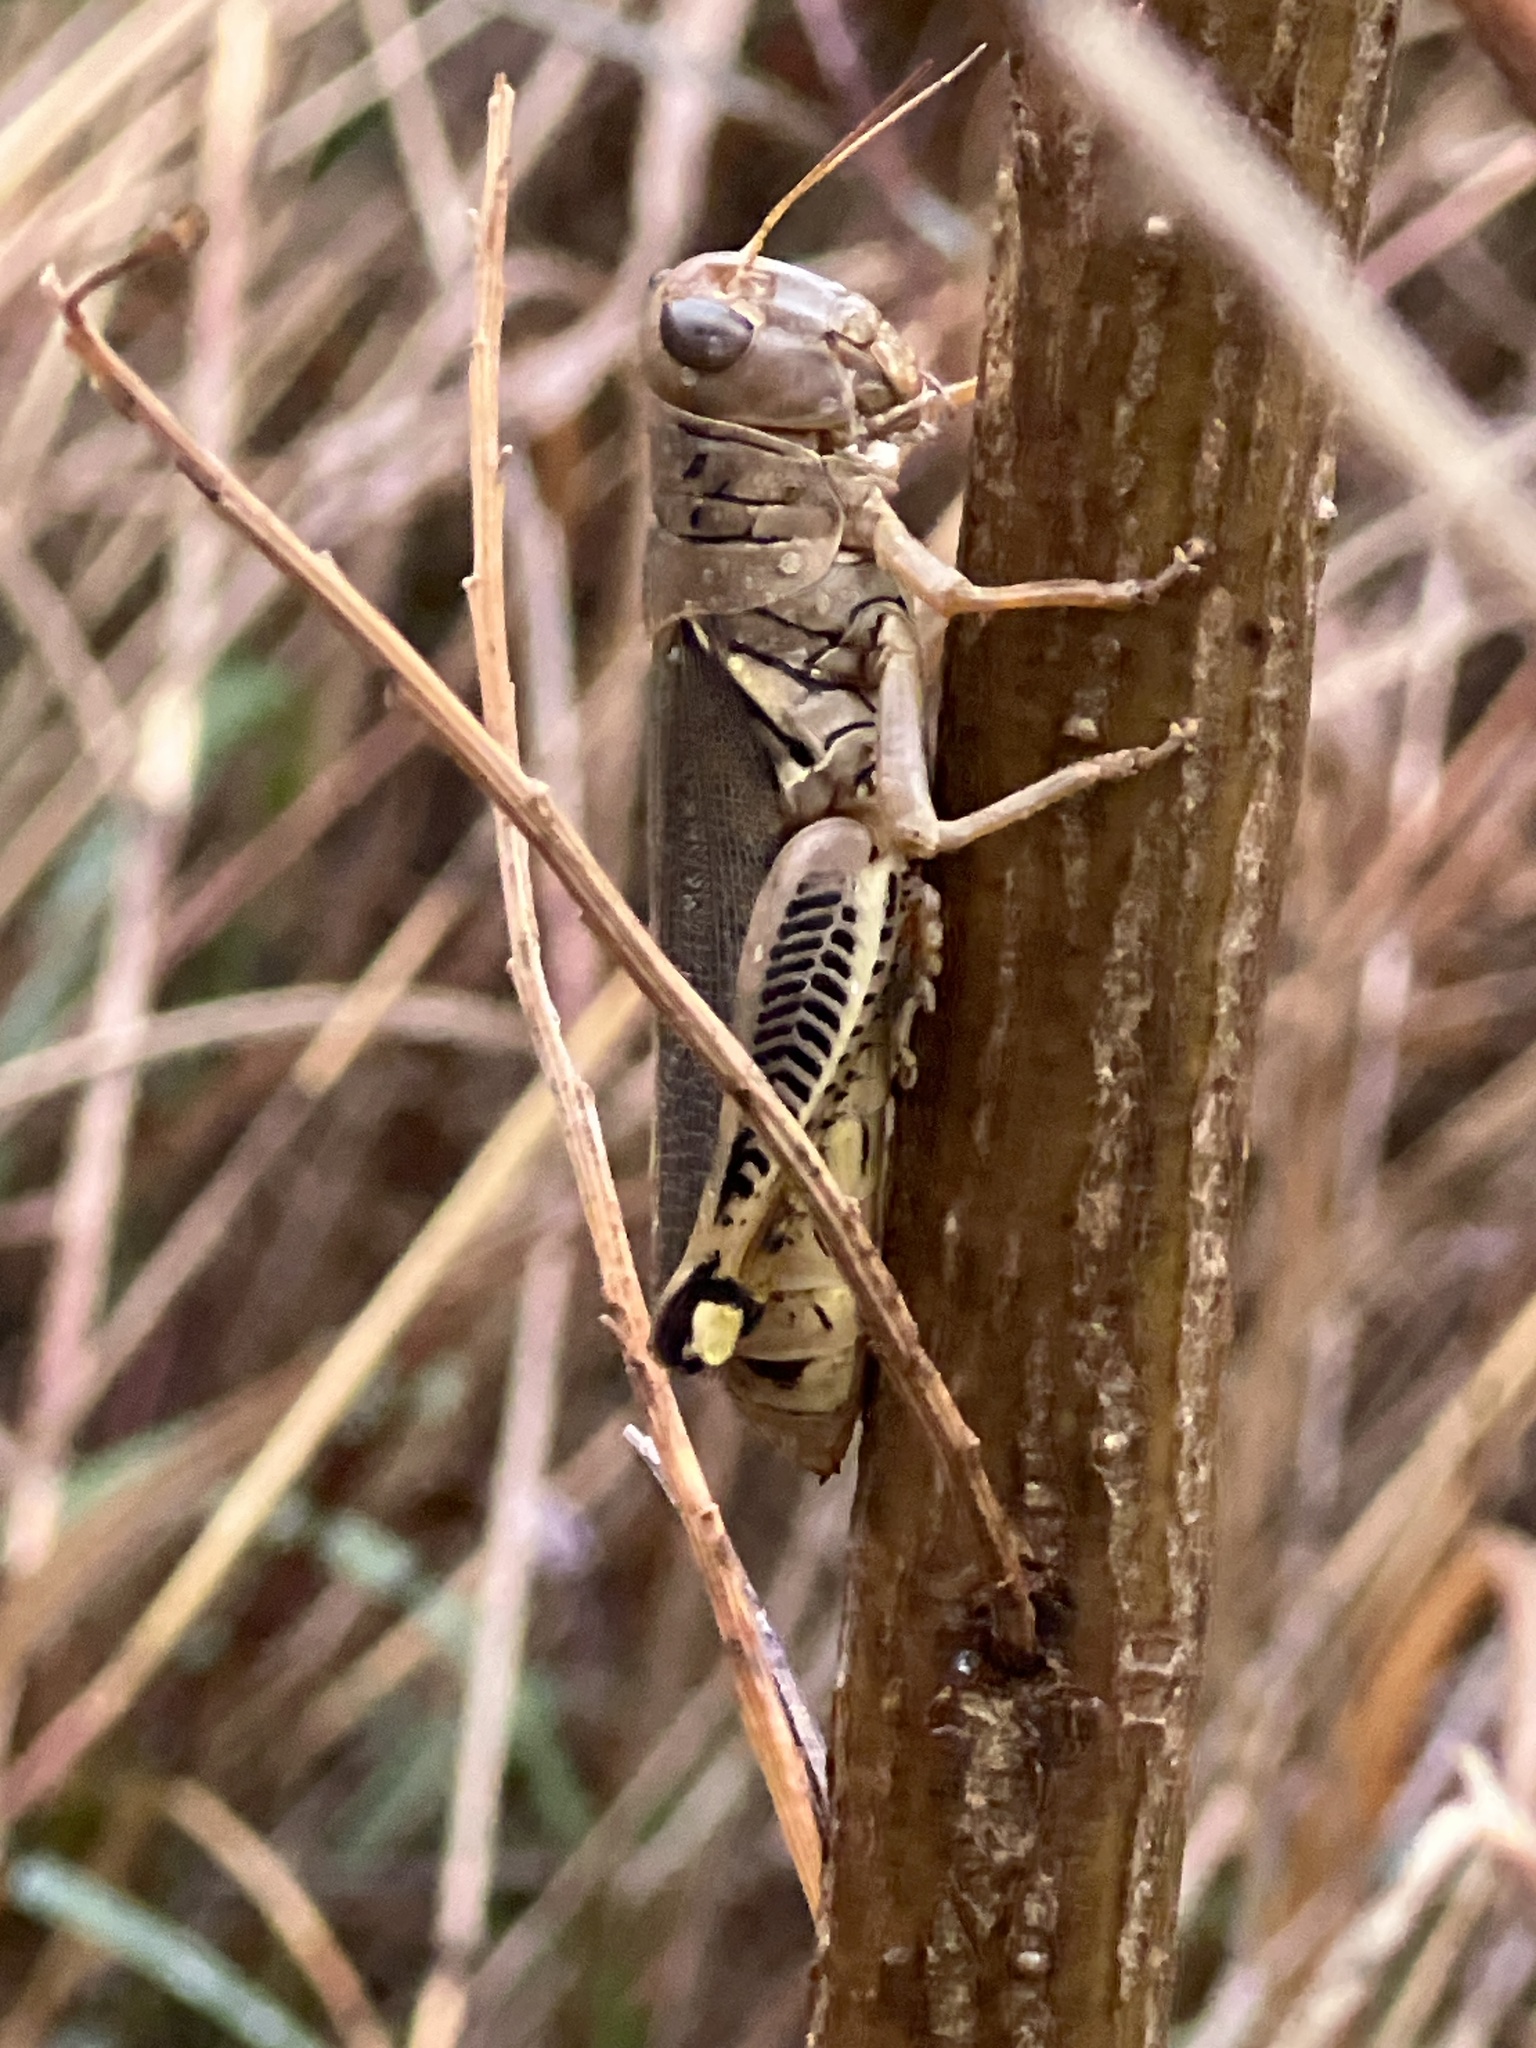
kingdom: Animalia
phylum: Arthropoda
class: Insecta
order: Orthoptera
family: Acrididae
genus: Melanoplus
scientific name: Melanoplus differentialis
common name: Differential grasshopper
